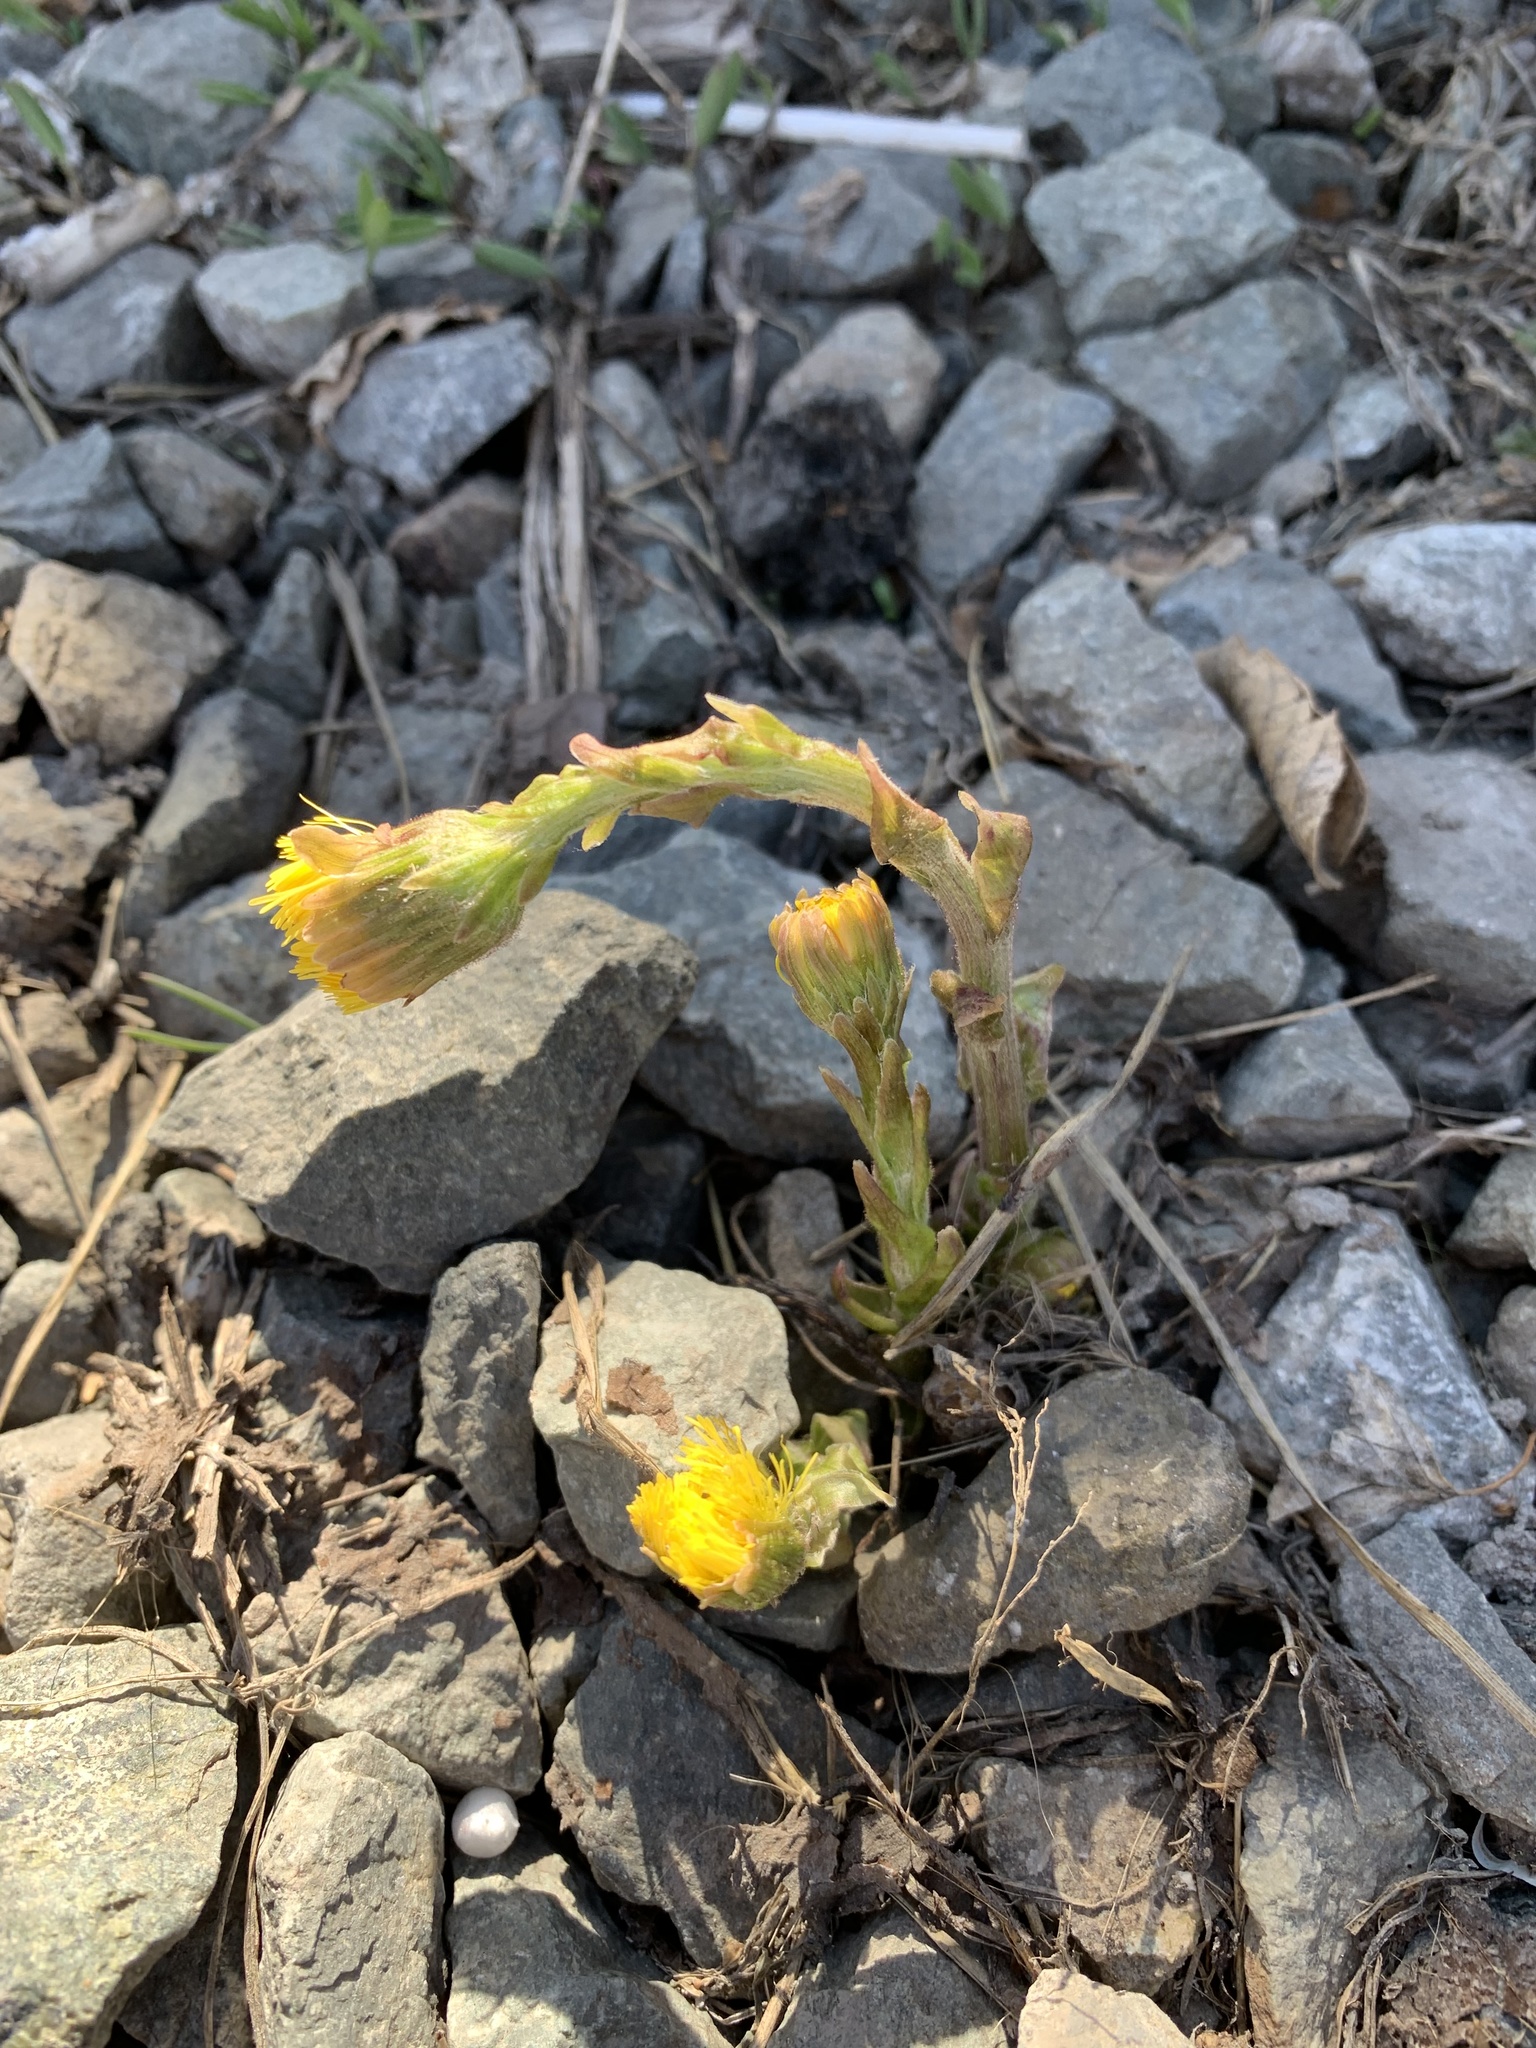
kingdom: Plantae
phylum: Tracheophyta
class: Magnoliopsida
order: Asterales
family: Asteraceae
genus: Tussilago
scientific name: Tussilago farfara
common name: Coltsfoot
